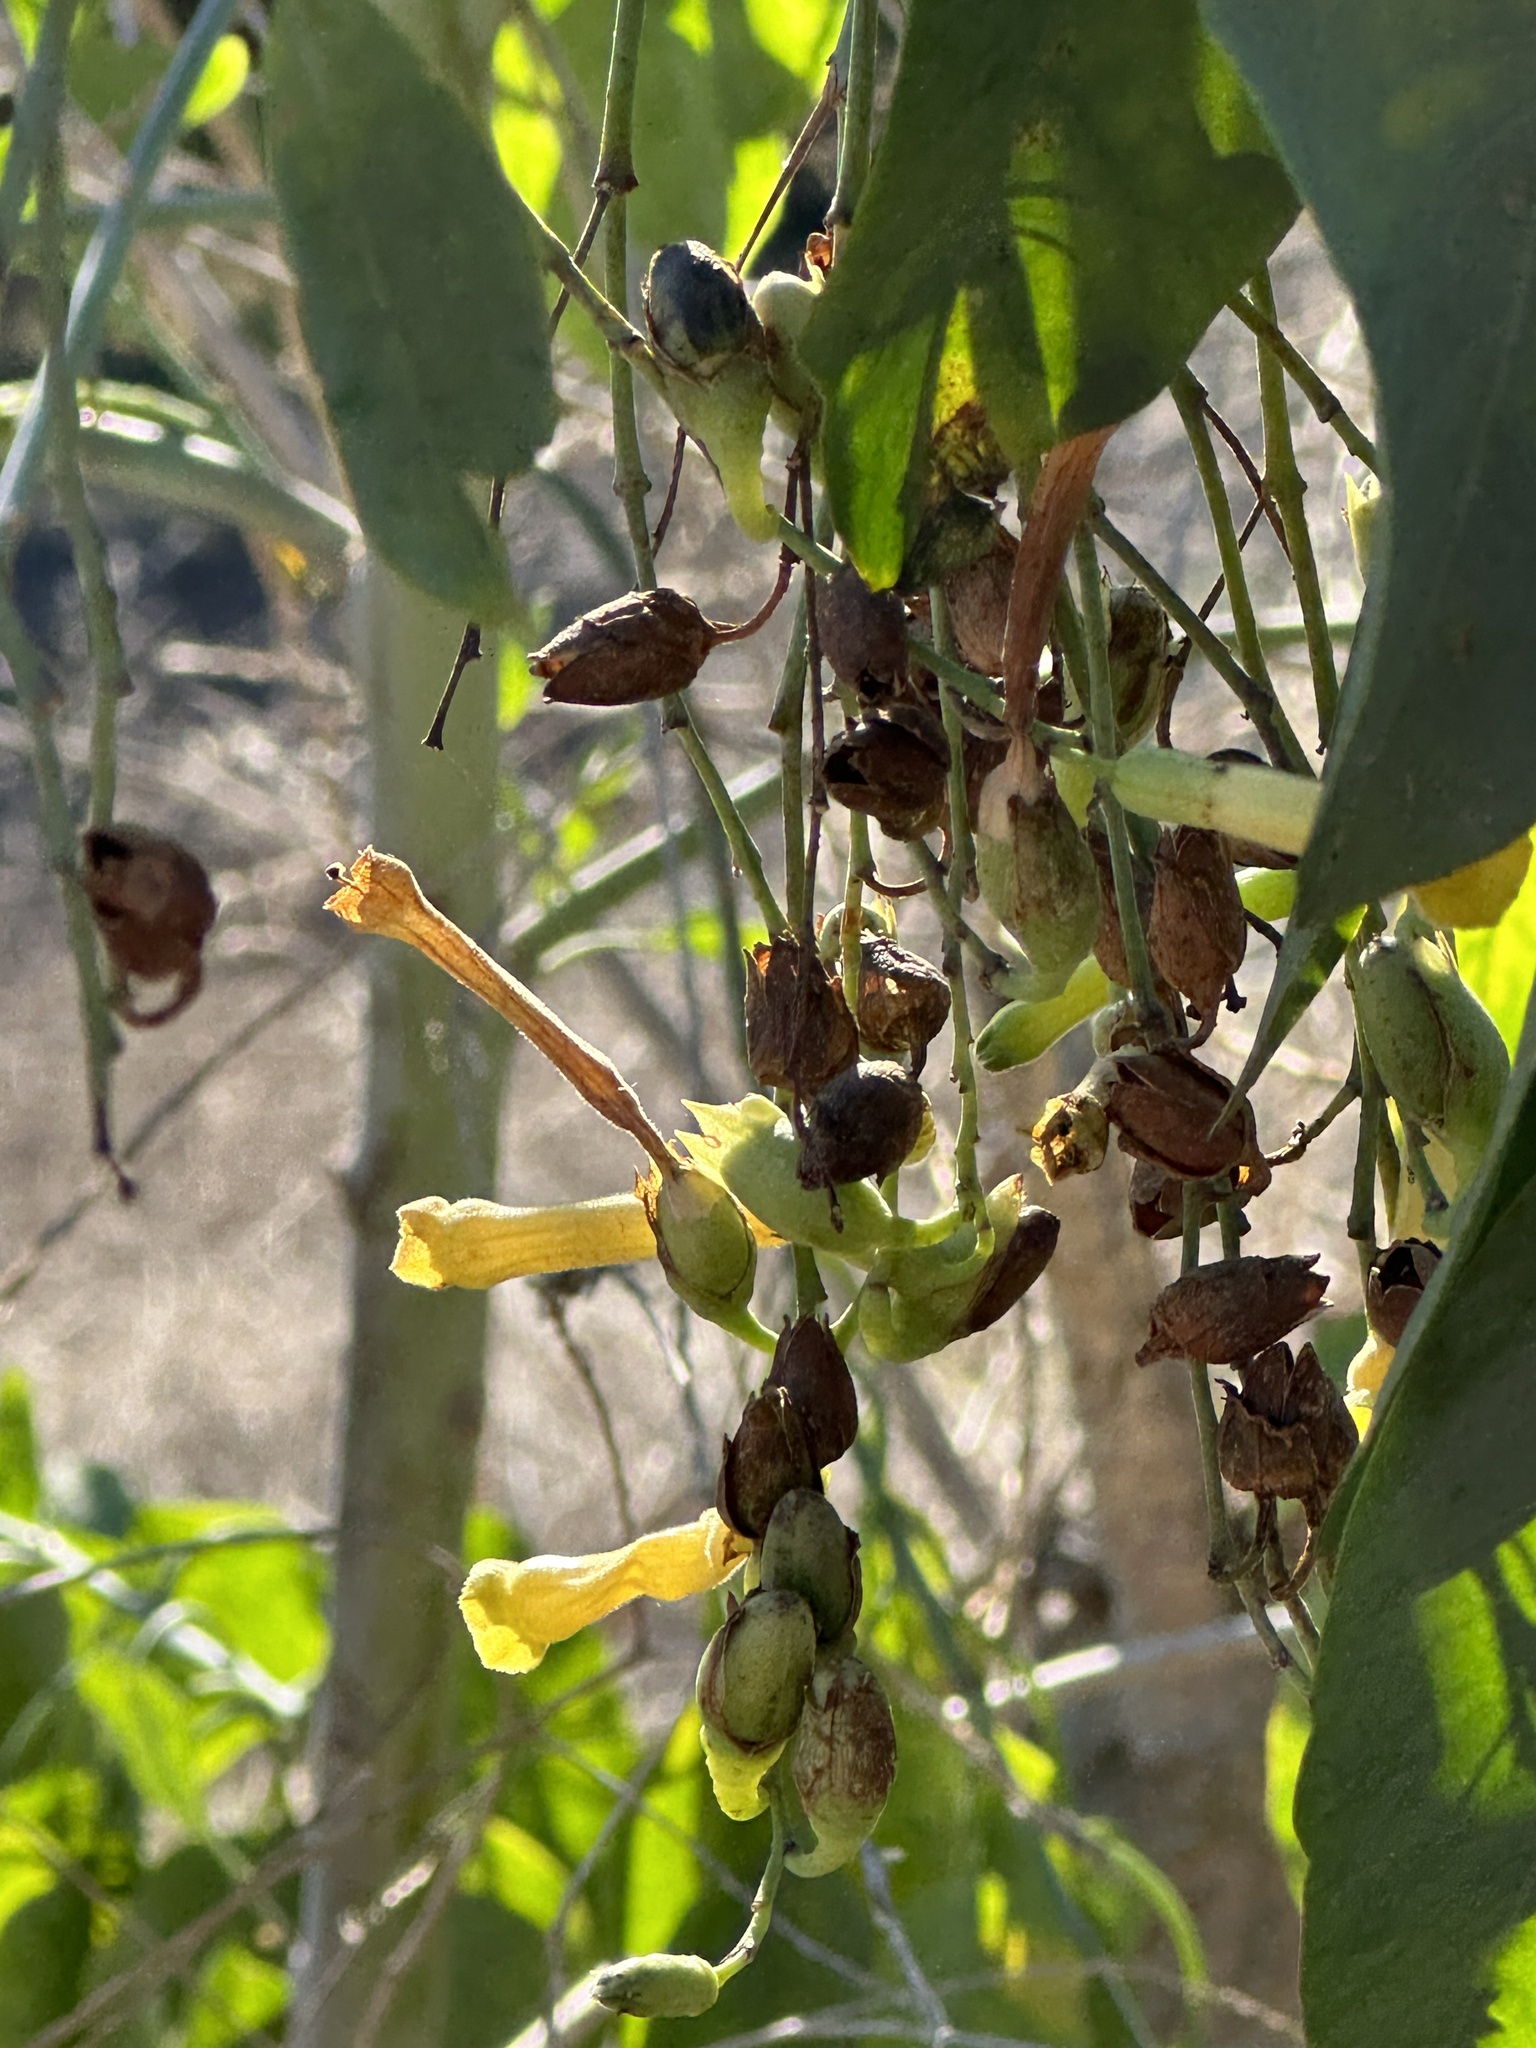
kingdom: Plantae
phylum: Tracheophyta
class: Magnoliopsida
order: Solanales
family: Solanaceae
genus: Nicotiana
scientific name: Nicotiana glauca
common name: Tree tobacco
